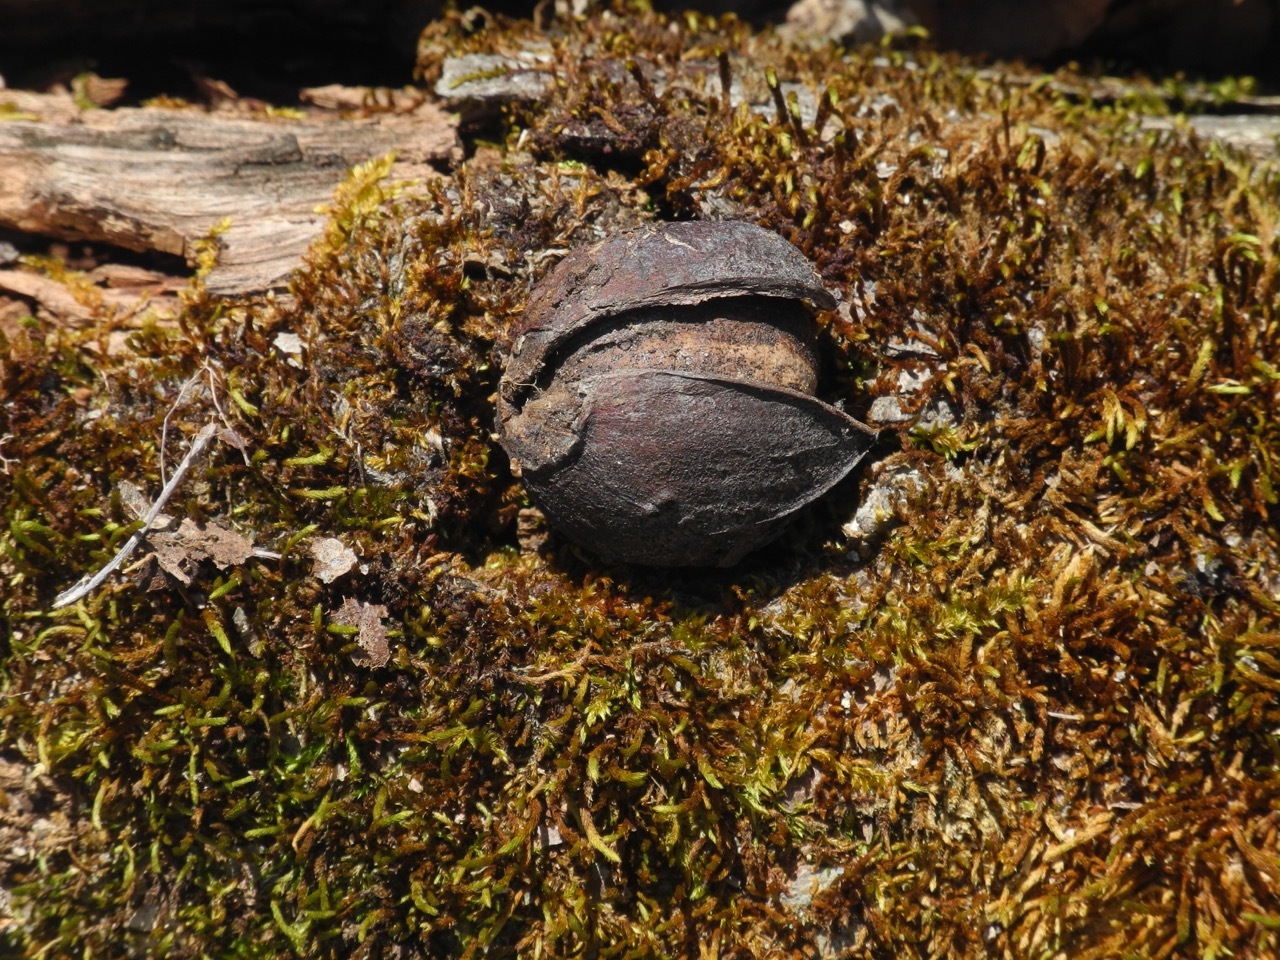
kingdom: Plantae
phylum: Tracheophyta
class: Magnoliopsida
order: Fagales
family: Juglandaceae
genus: Carya
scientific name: Carya cordiformis
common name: Bitternut hickory
